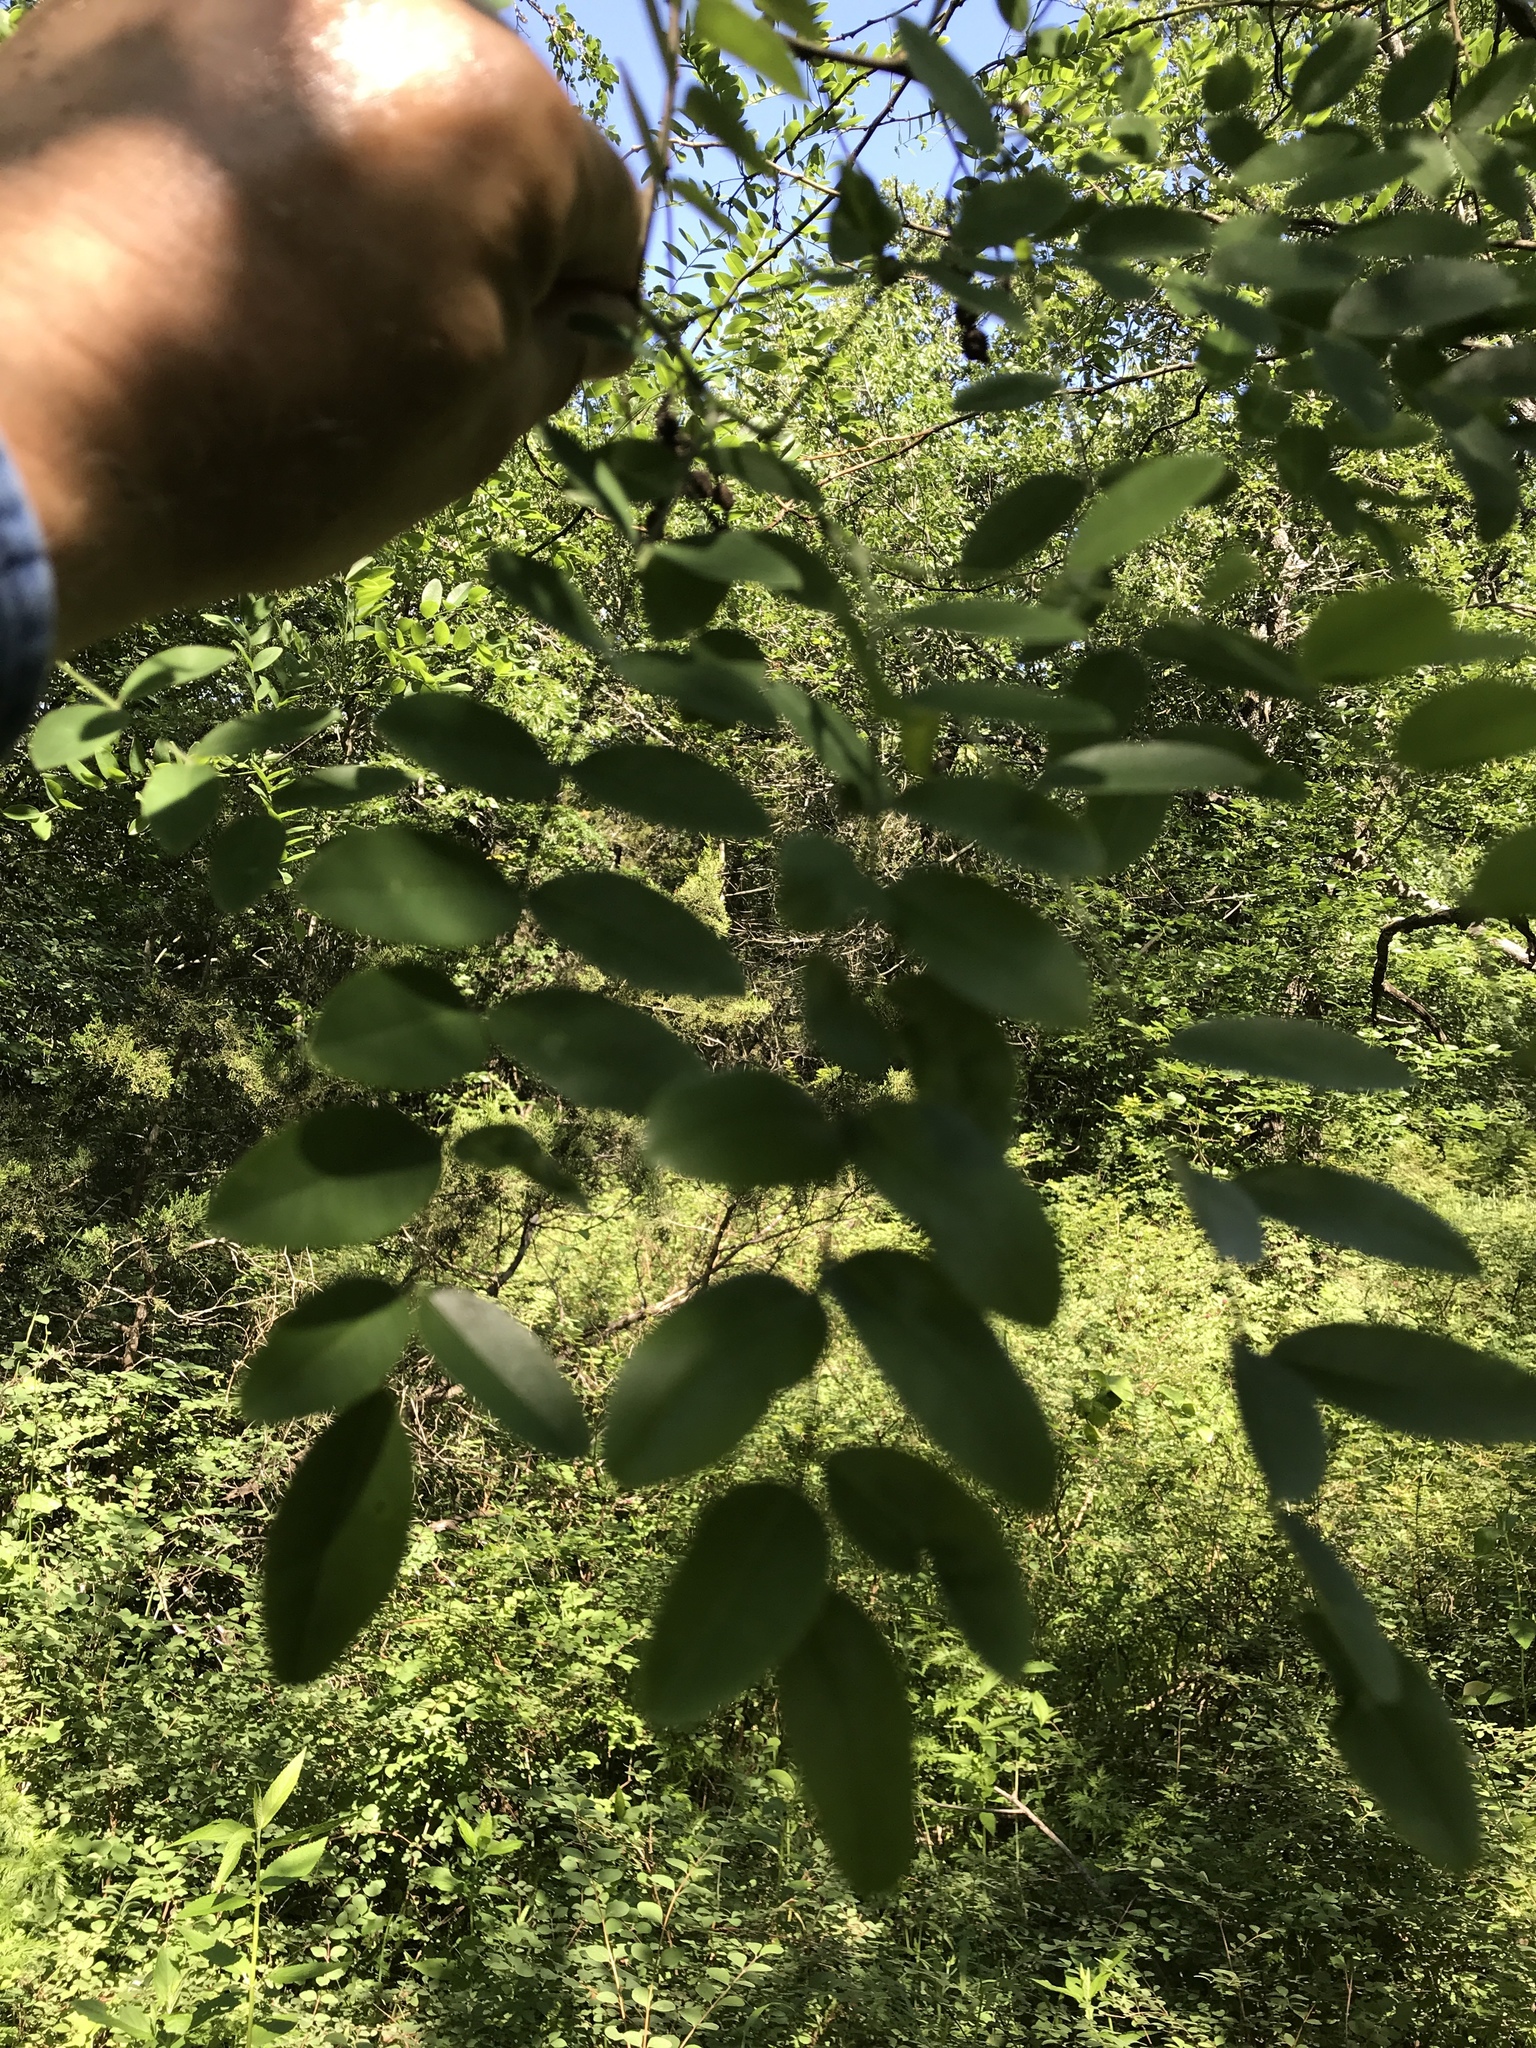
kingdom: Plantae
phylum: Tracheophyta
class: Magnoliopsida
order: Fabales
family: Fabaceae
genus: Styphnolobium
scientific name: Styphnolobium affine
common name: Texas sophora
